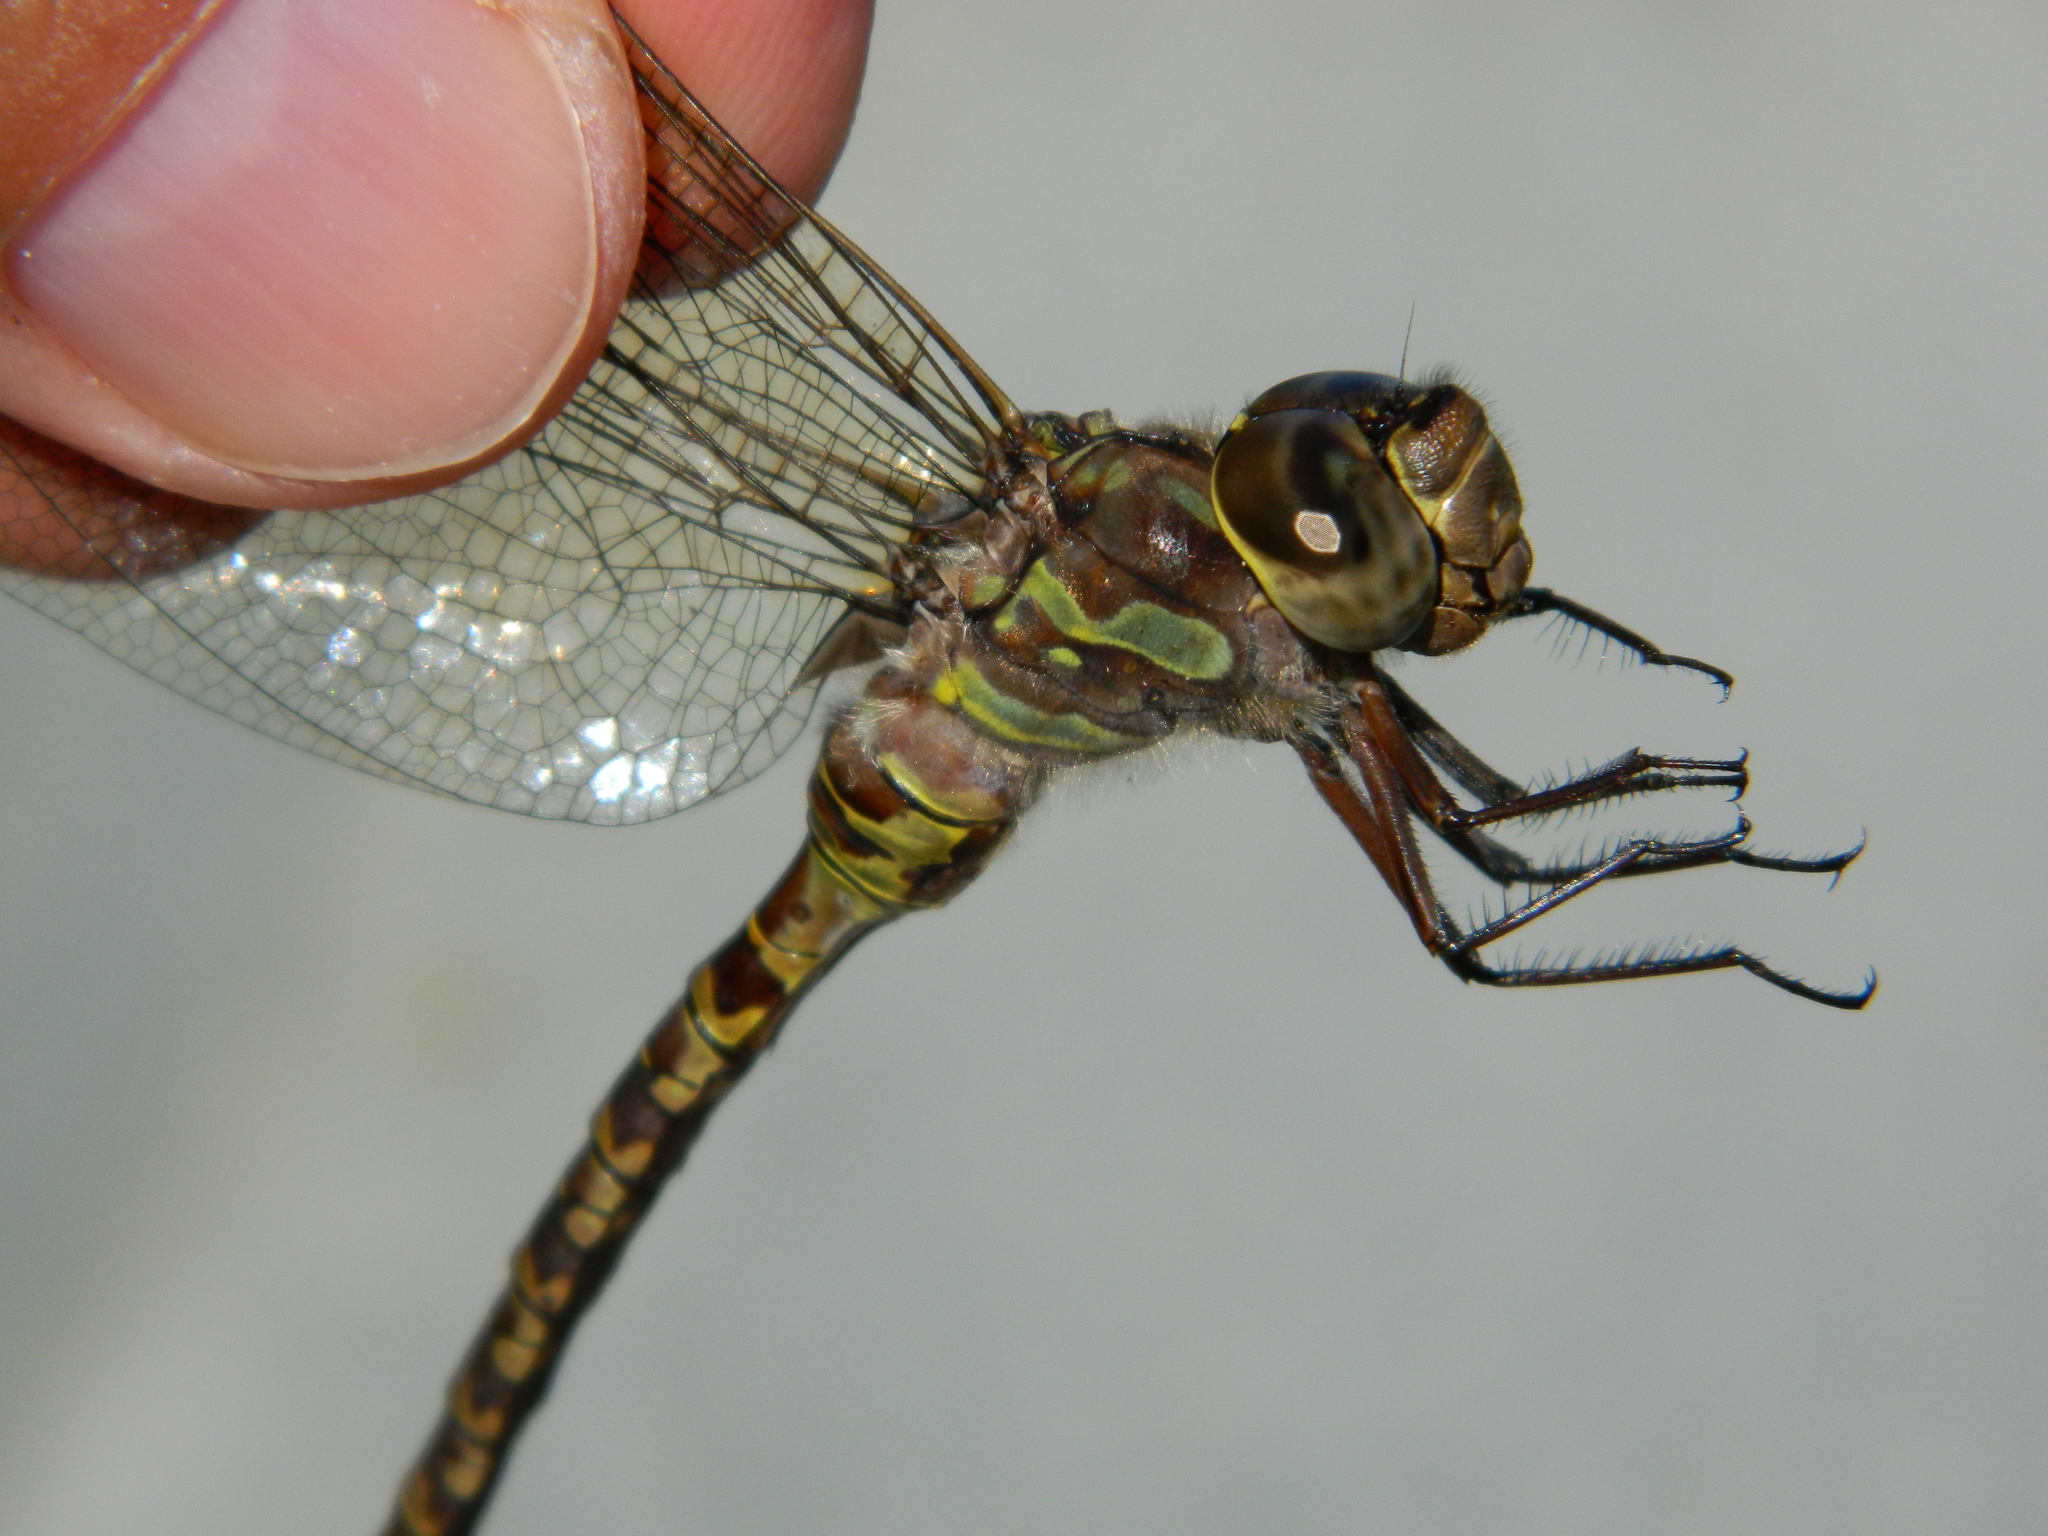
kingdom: Animalia
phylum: Arthropoda
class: Insecta
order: Odonata
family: Aeshnidae
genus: Aeshna
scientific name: Aeshna canadensis
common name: Canada darner
